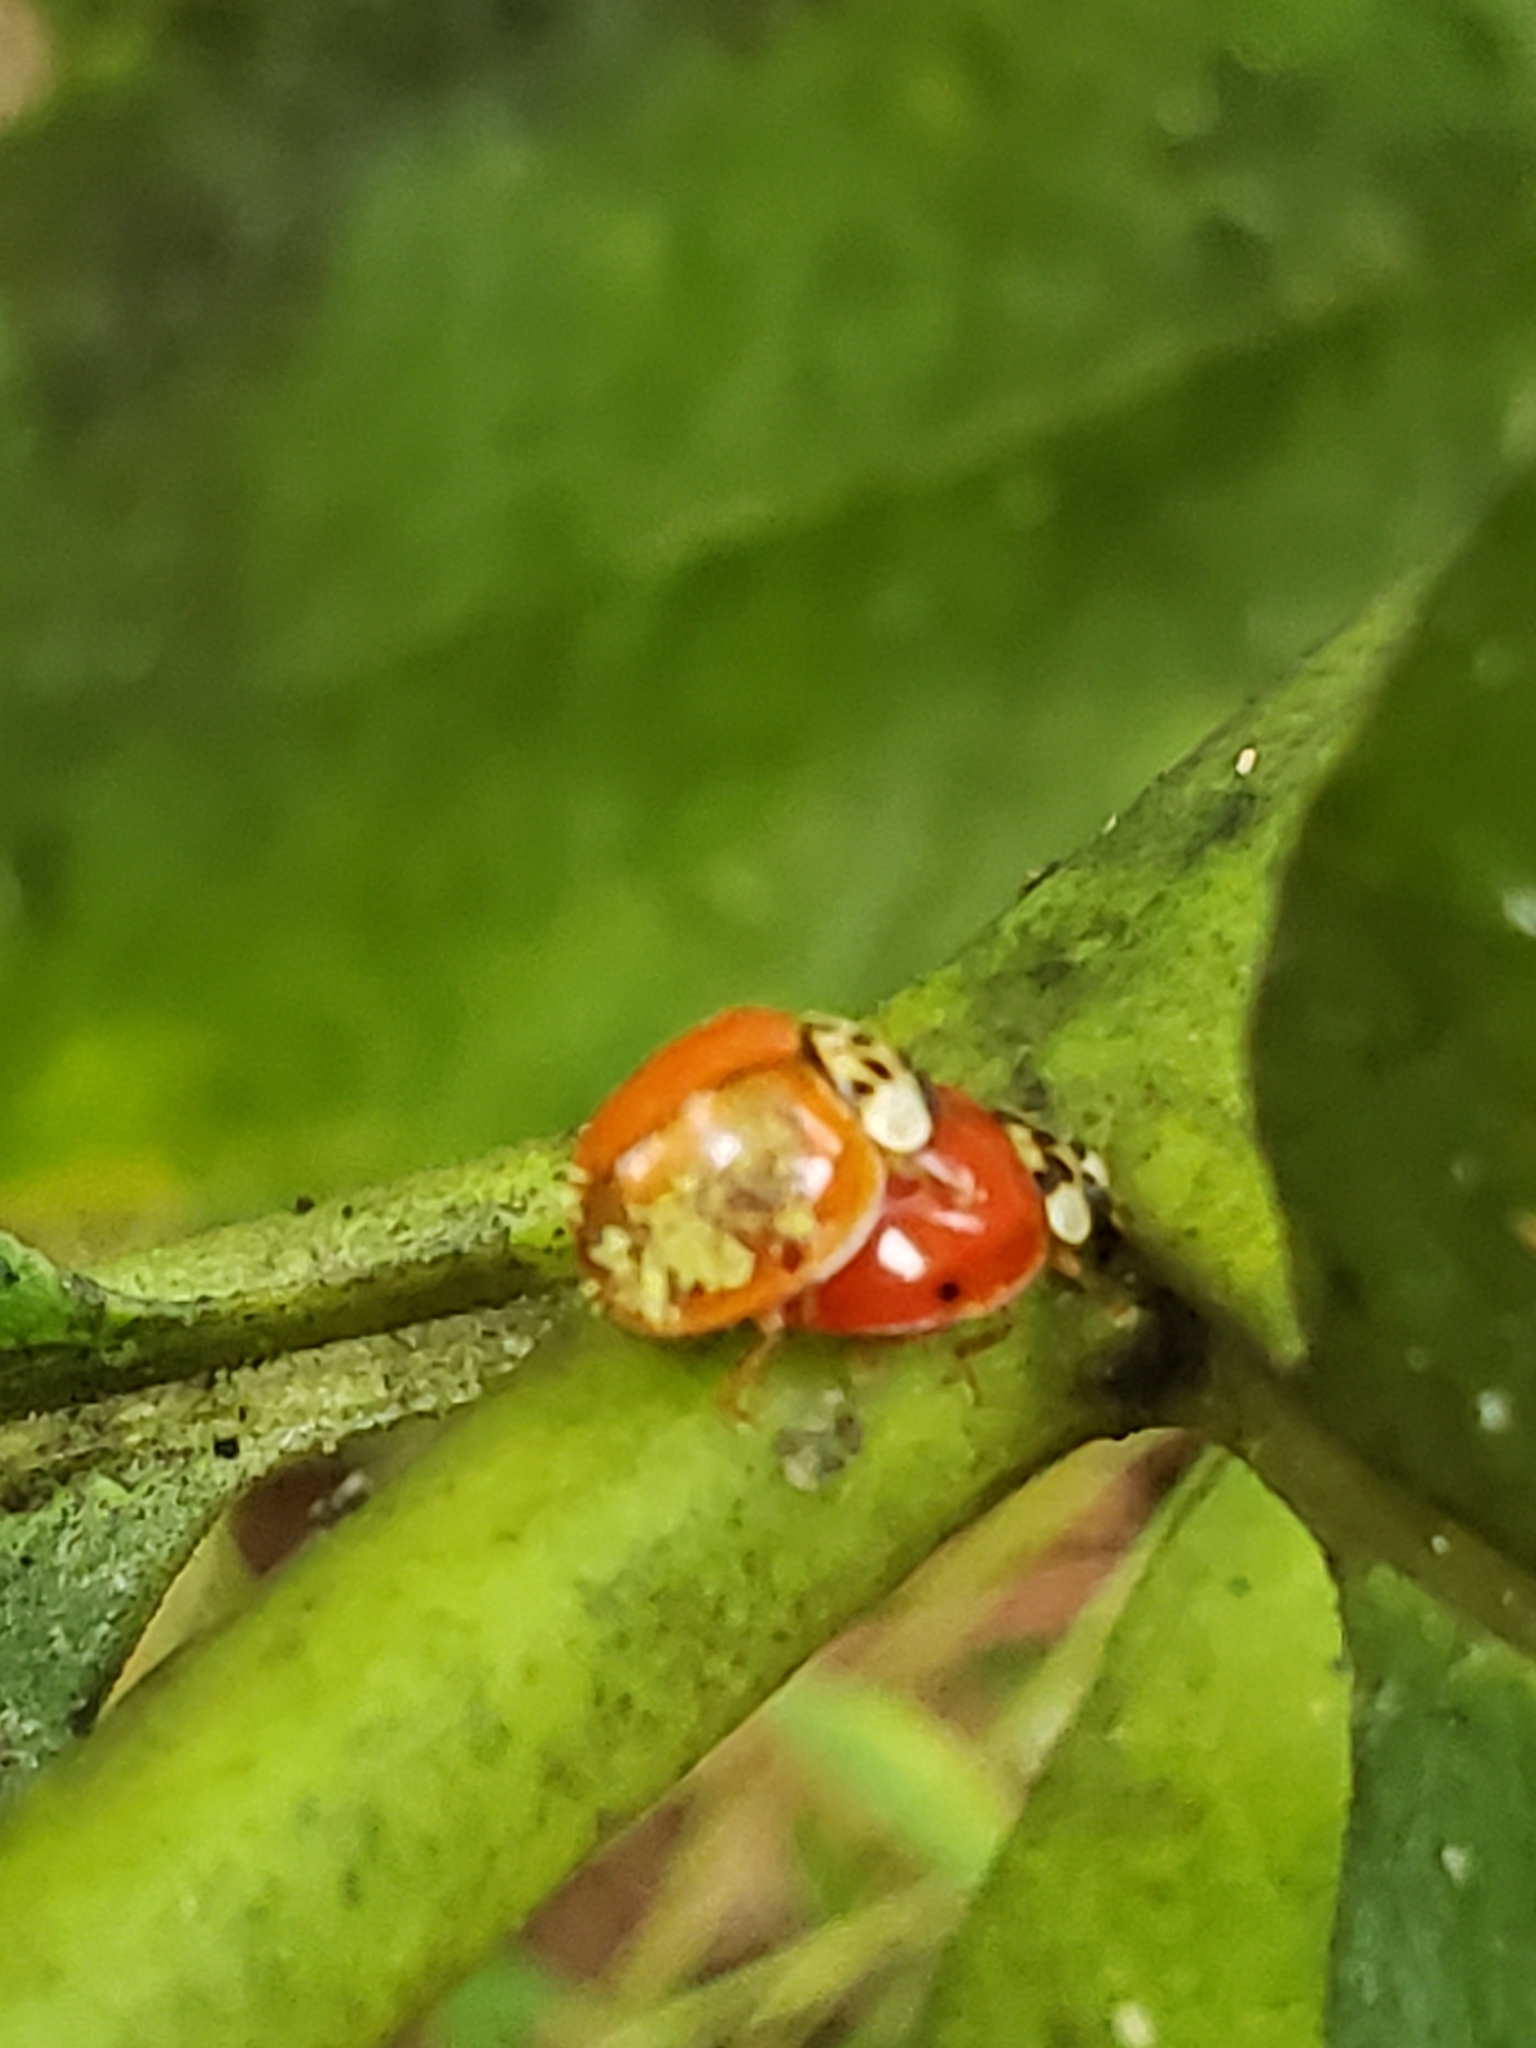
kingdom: Animalia
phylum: Arthropoda
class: Insecta
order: Coleoptera
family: Coccinellidae
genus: Harmonia
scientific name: Harmonia axyridis
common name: Harlequin ladybird
